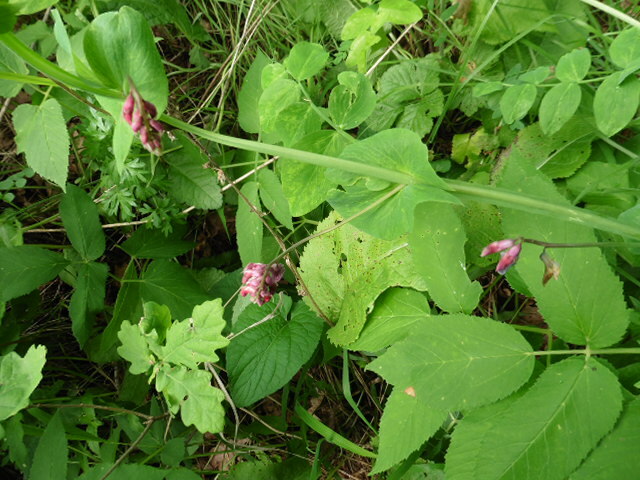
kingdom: Plantae
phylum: Tracheophyta
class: Magnoliopsida
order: Fabales
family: Fabaceae
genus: Lathyrus
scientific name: Lathyrus pisiformis
